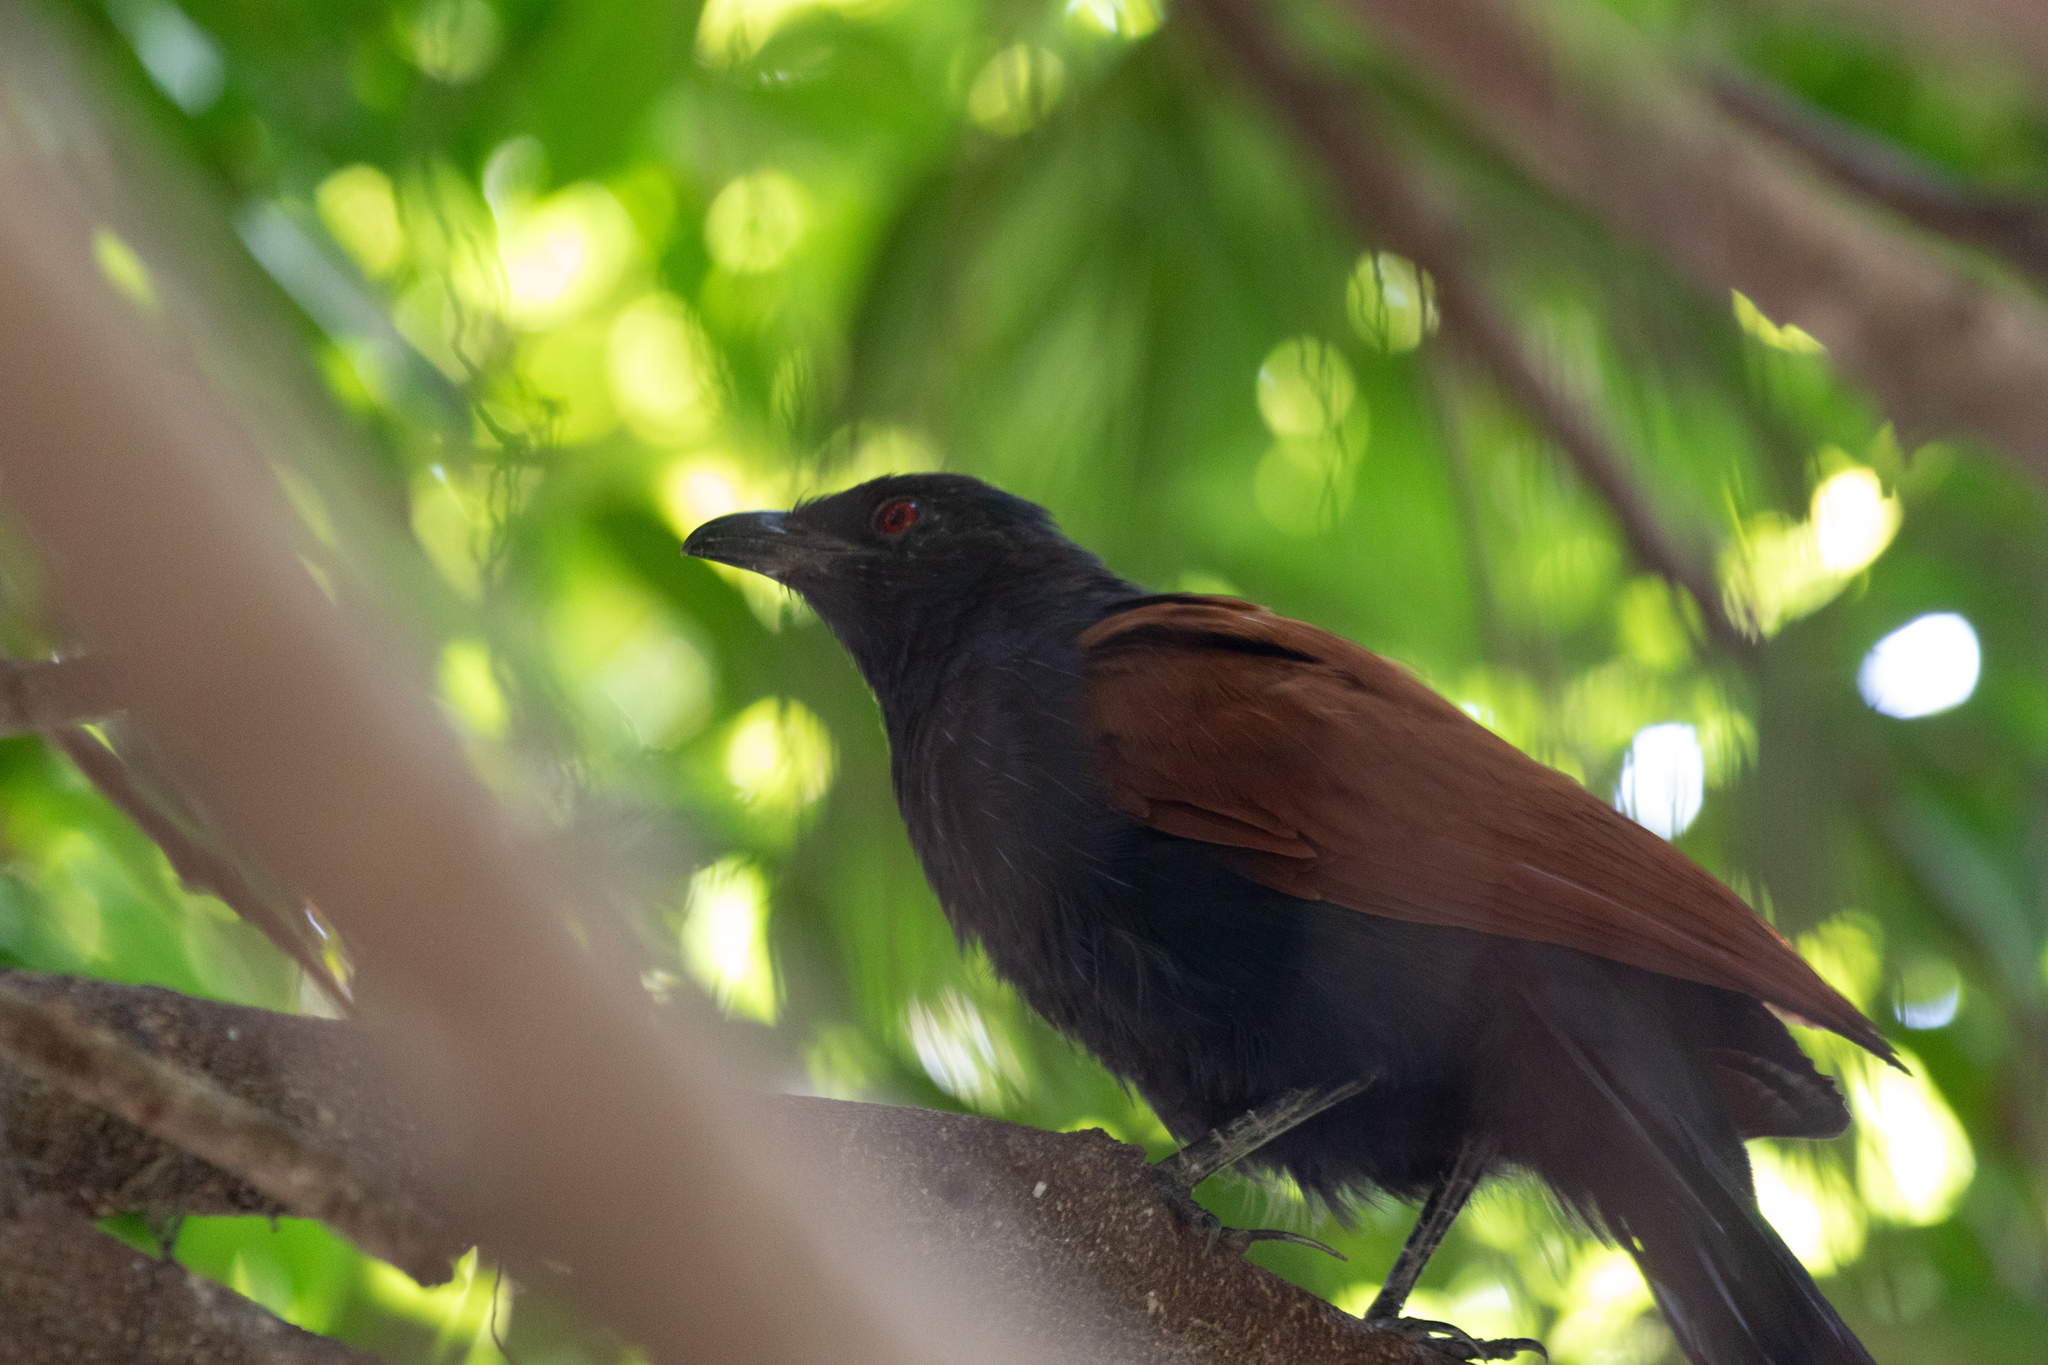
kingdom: Animalia
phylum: Chordata
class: Aves
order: Cuculiformes
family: Cuculidae
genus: Centropus
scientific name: Centropus sinensis
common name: Greater coucal
